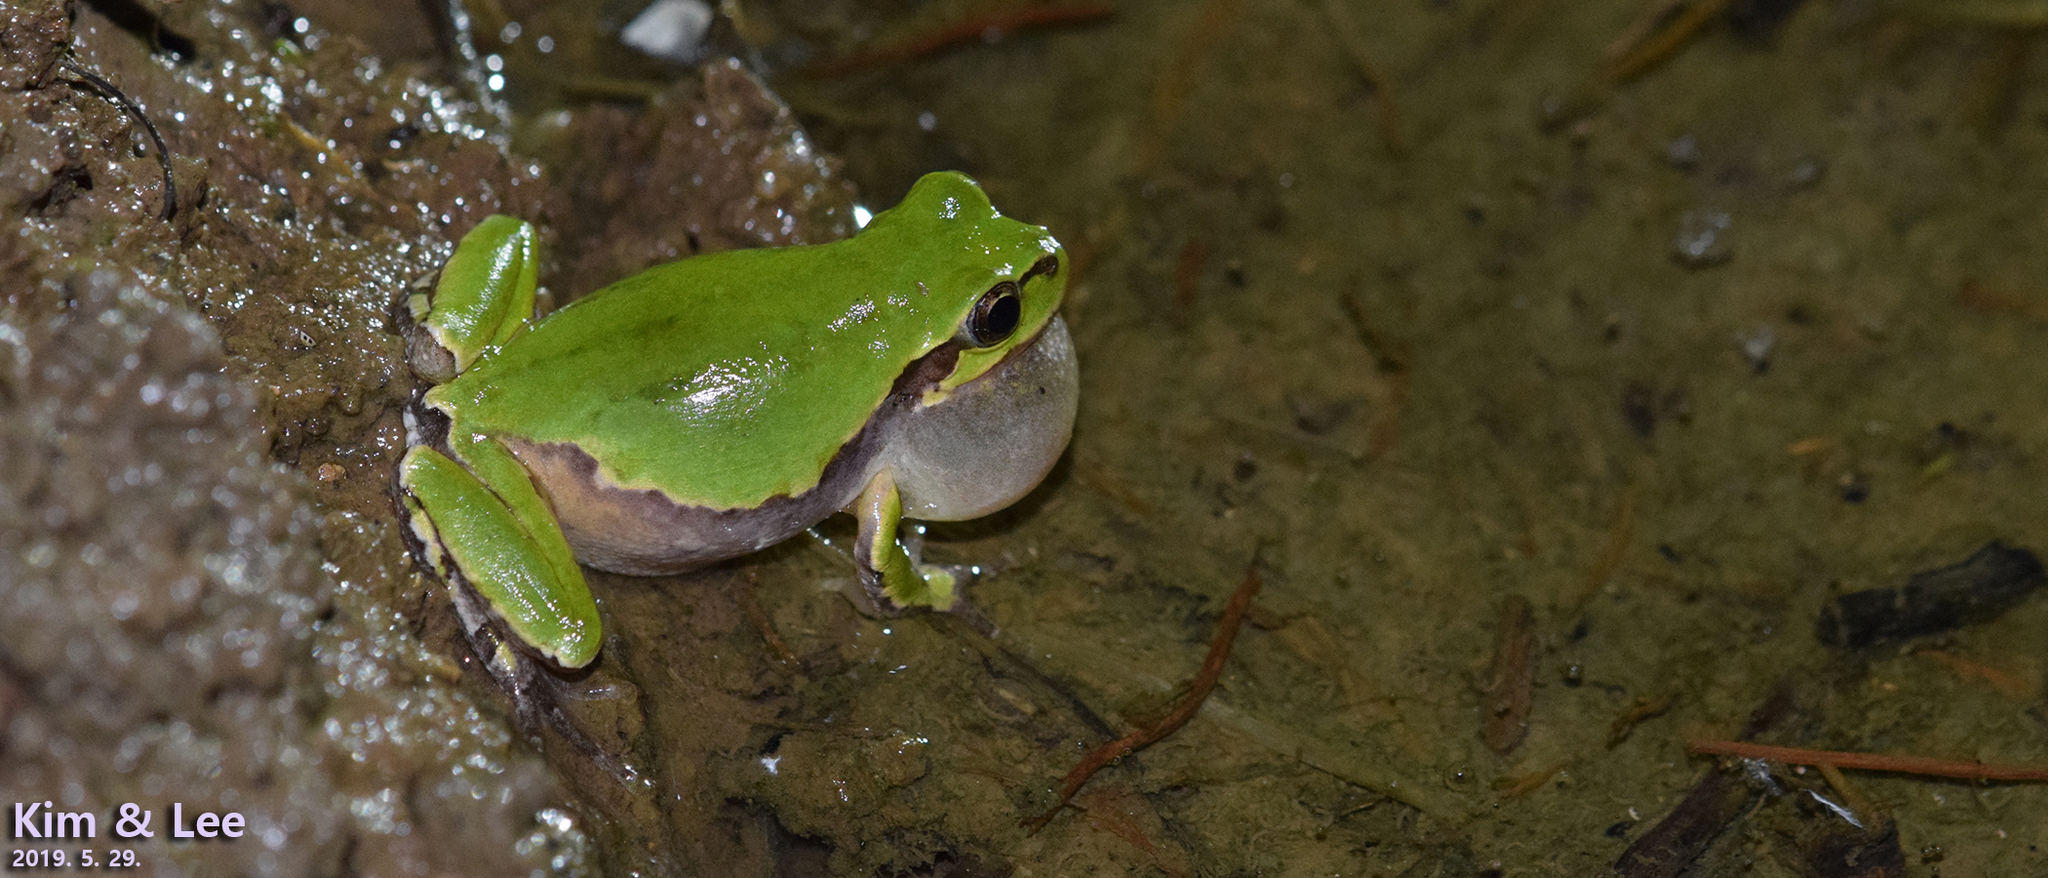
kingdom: Animalia
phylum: Chordata
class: Amphibia
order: Anura
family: Hylidae
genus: Dryophytes
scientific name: Dryophytes japonicus
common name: Japanese treefrog
